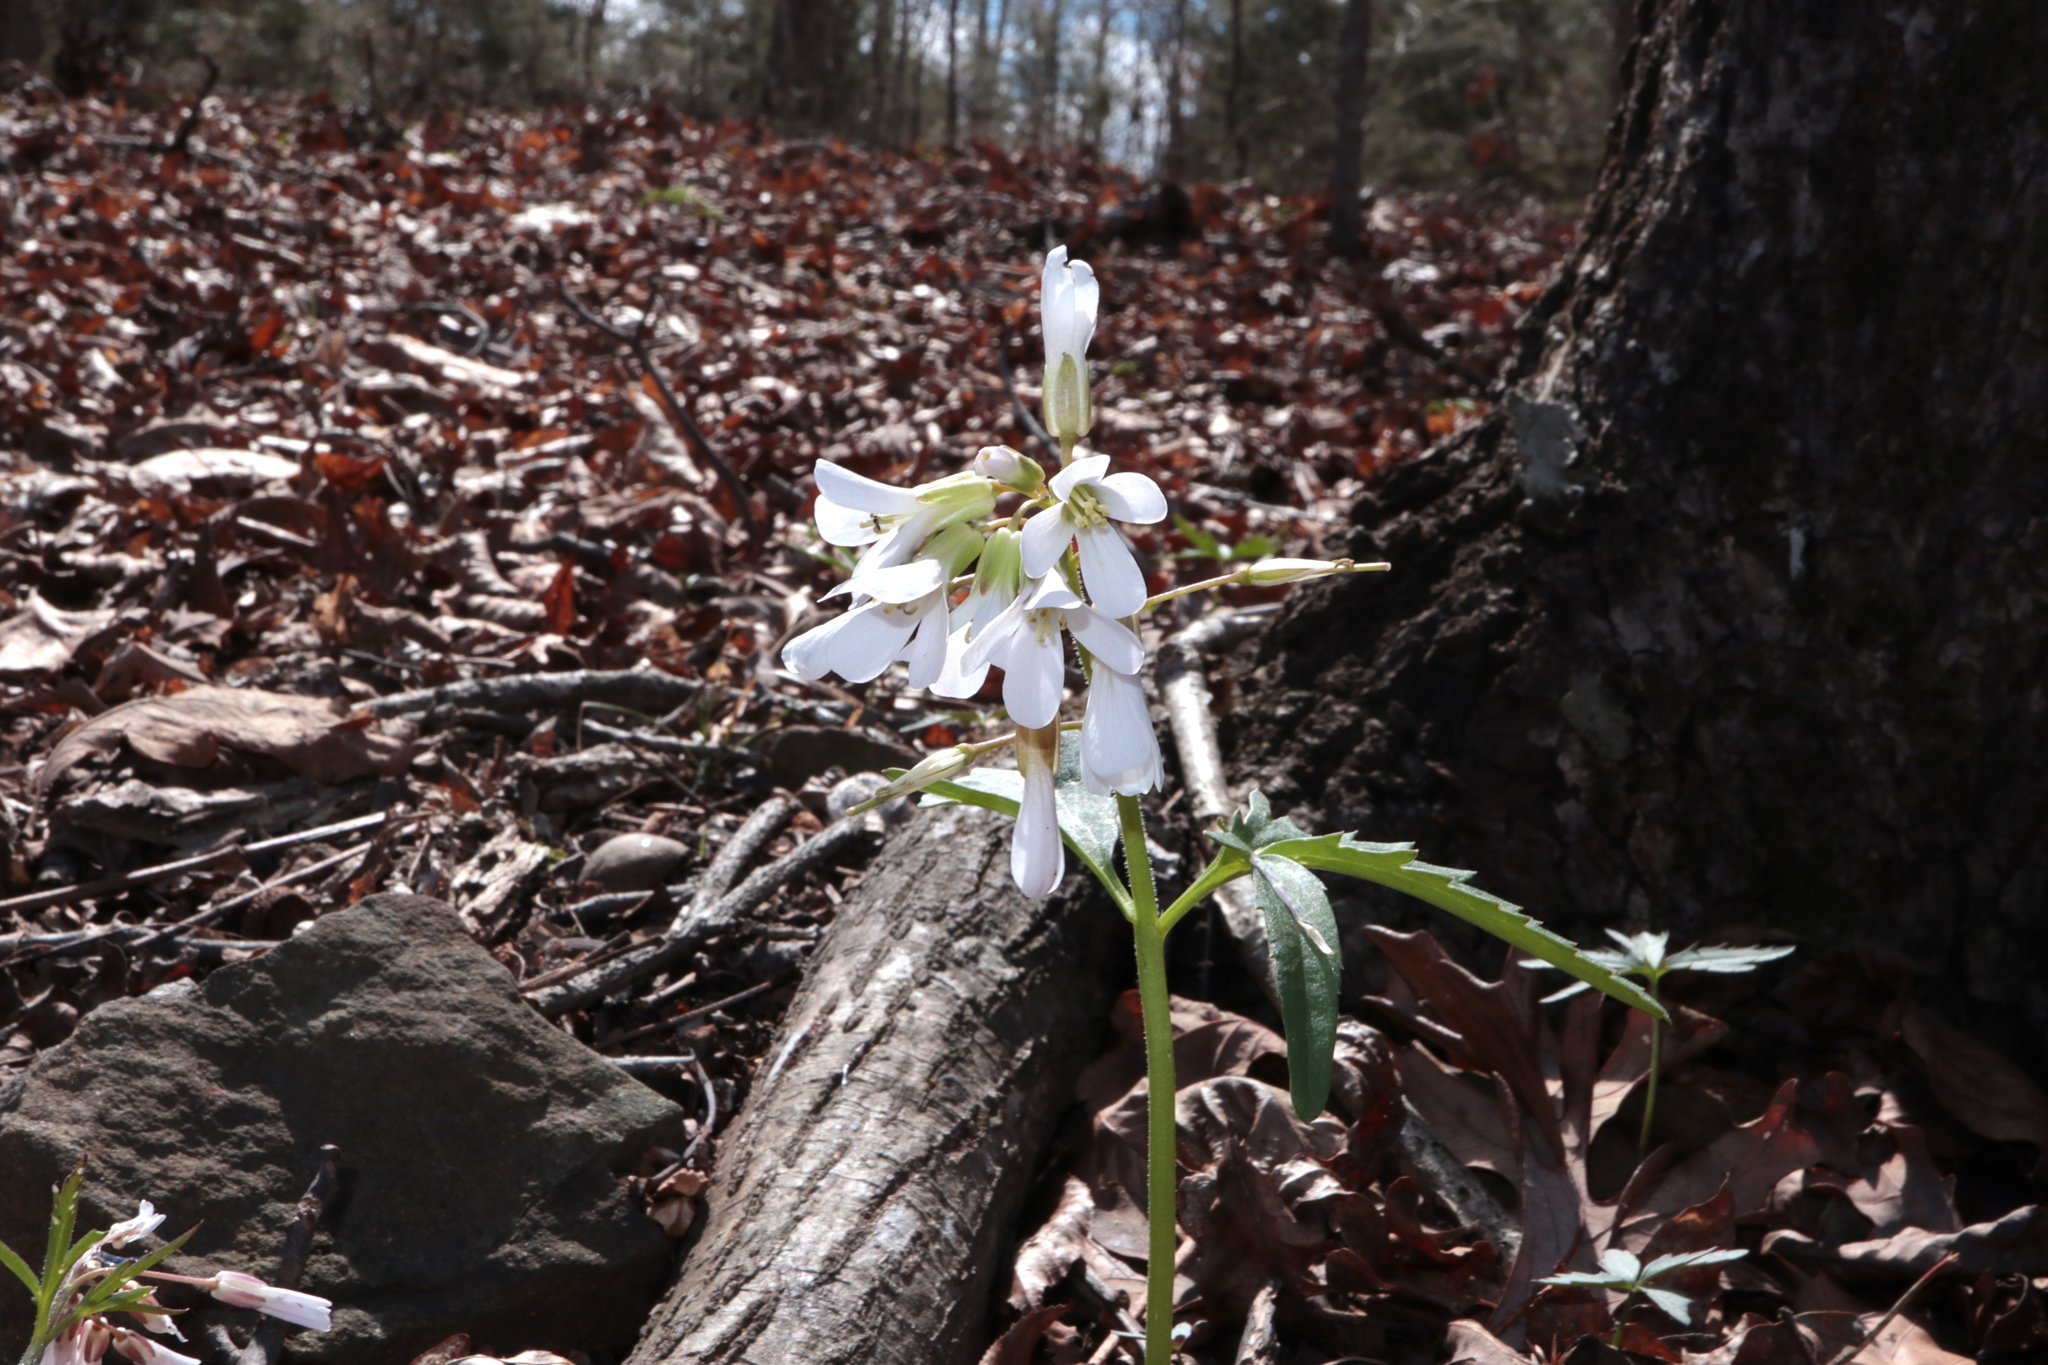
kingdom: Plantae
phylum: Tracheophyta
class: Magnoliopsida
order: Brassicales
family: Brassicaceae
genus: Cardamine
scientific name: Cardamine concatenata
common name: Cut-leaf toothcup
